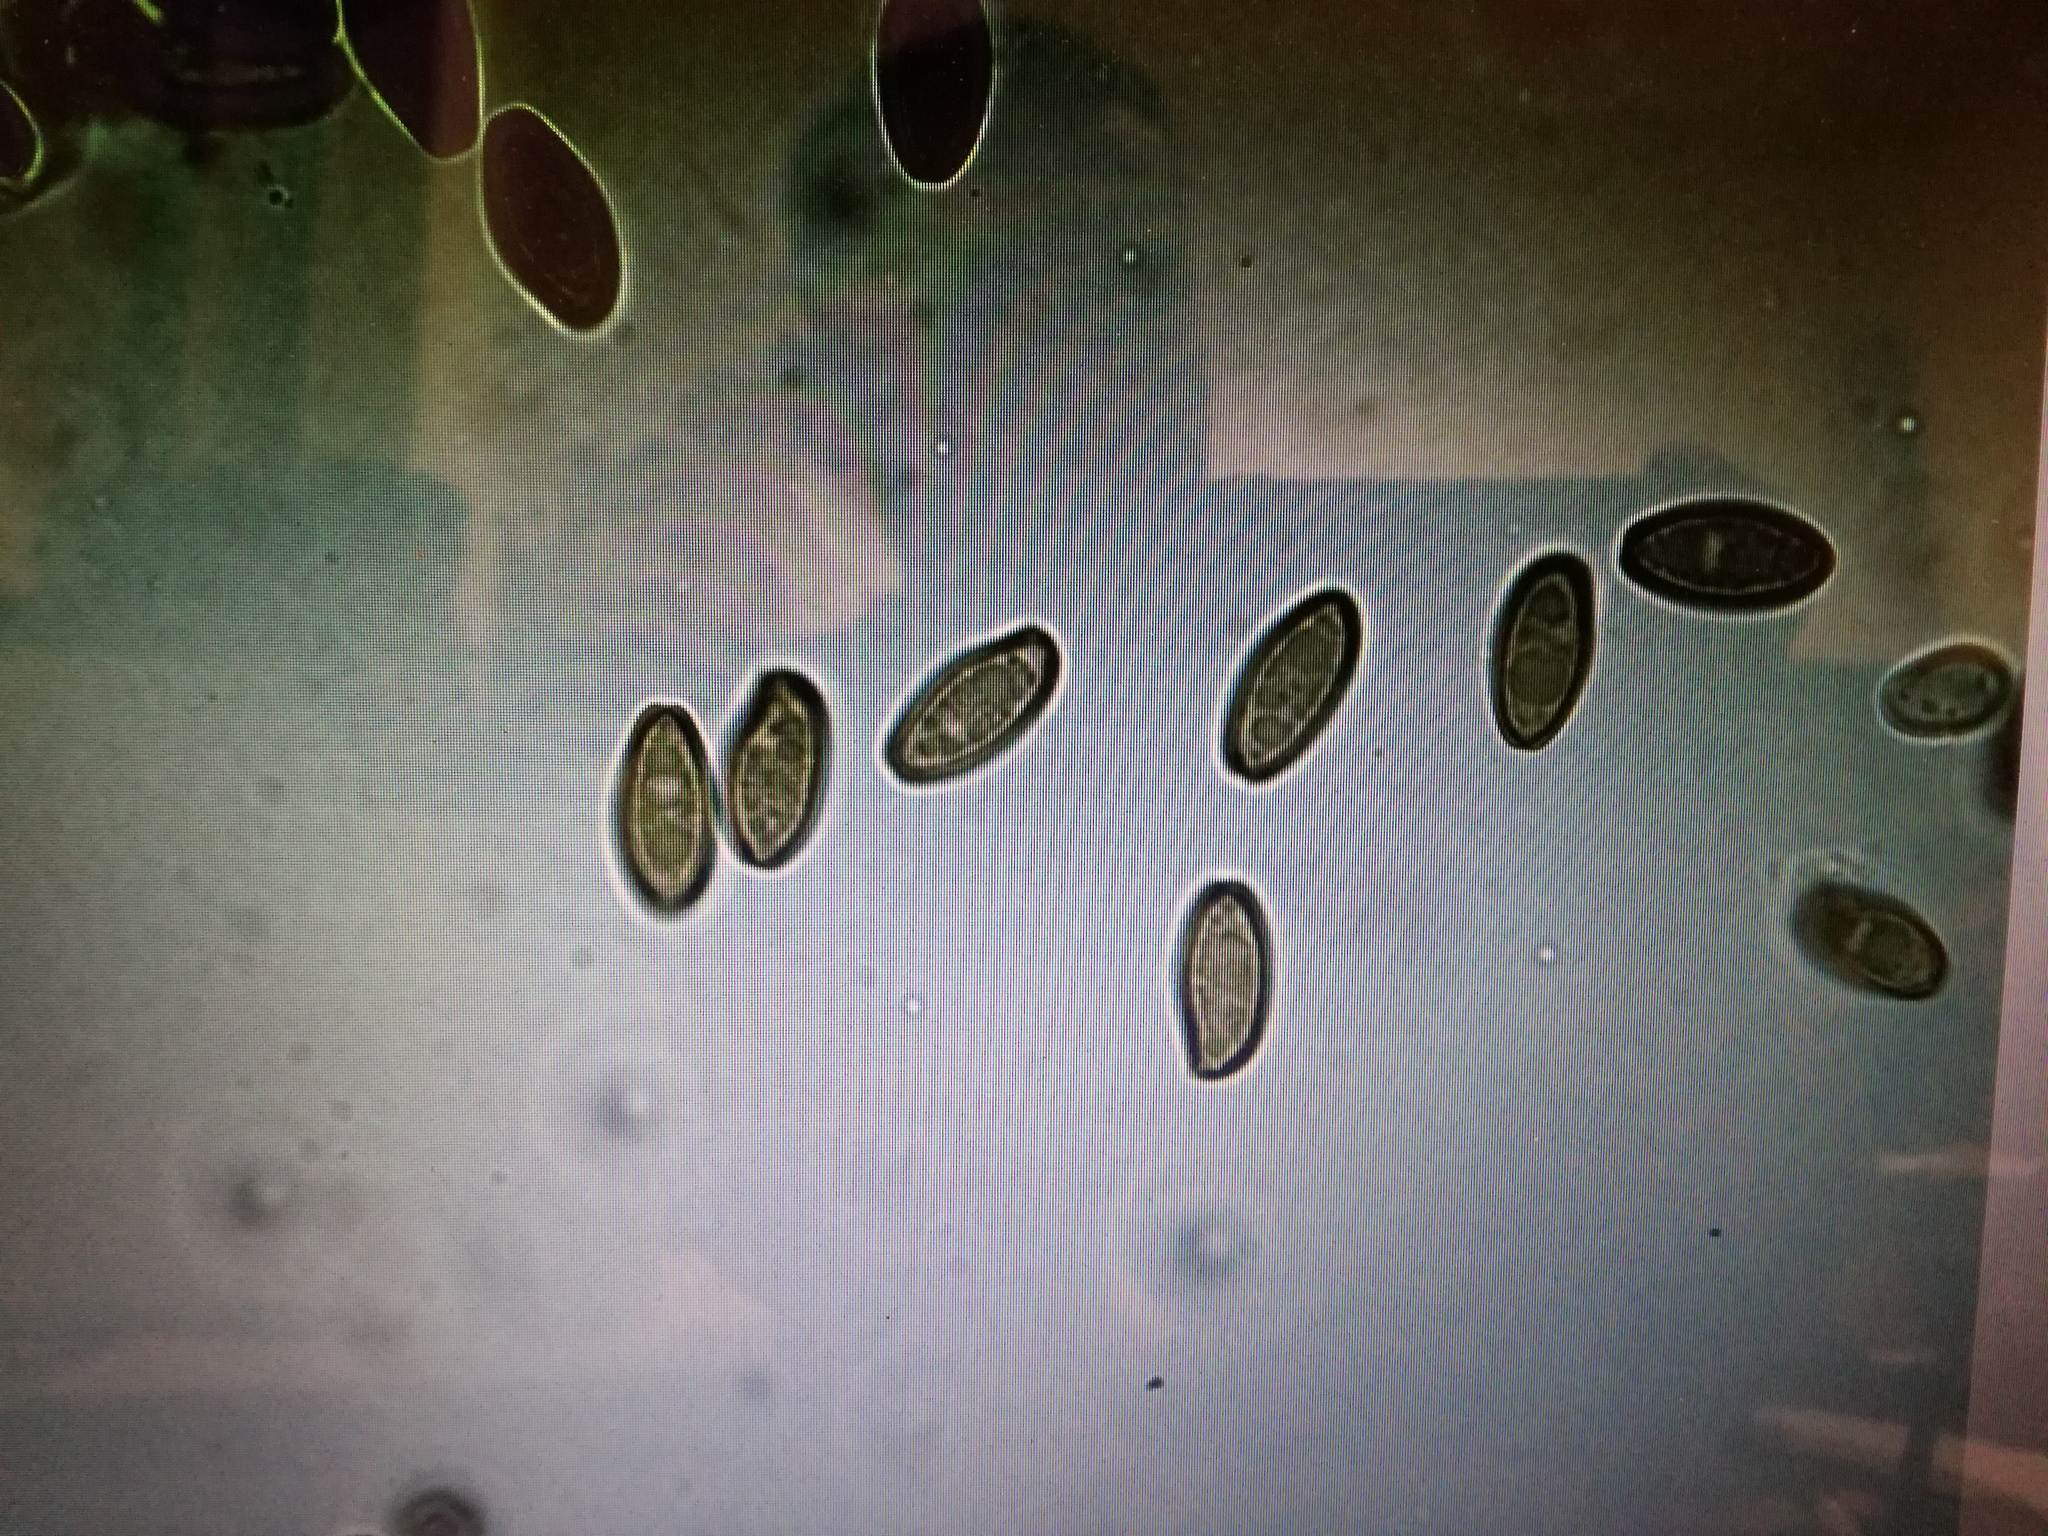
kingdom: Fungi
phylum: Basidiomycota
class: Agaricomycetes
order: Boletales
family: Boletaceae
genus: Xerocomellus
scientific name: Xerocomellus porosporus
